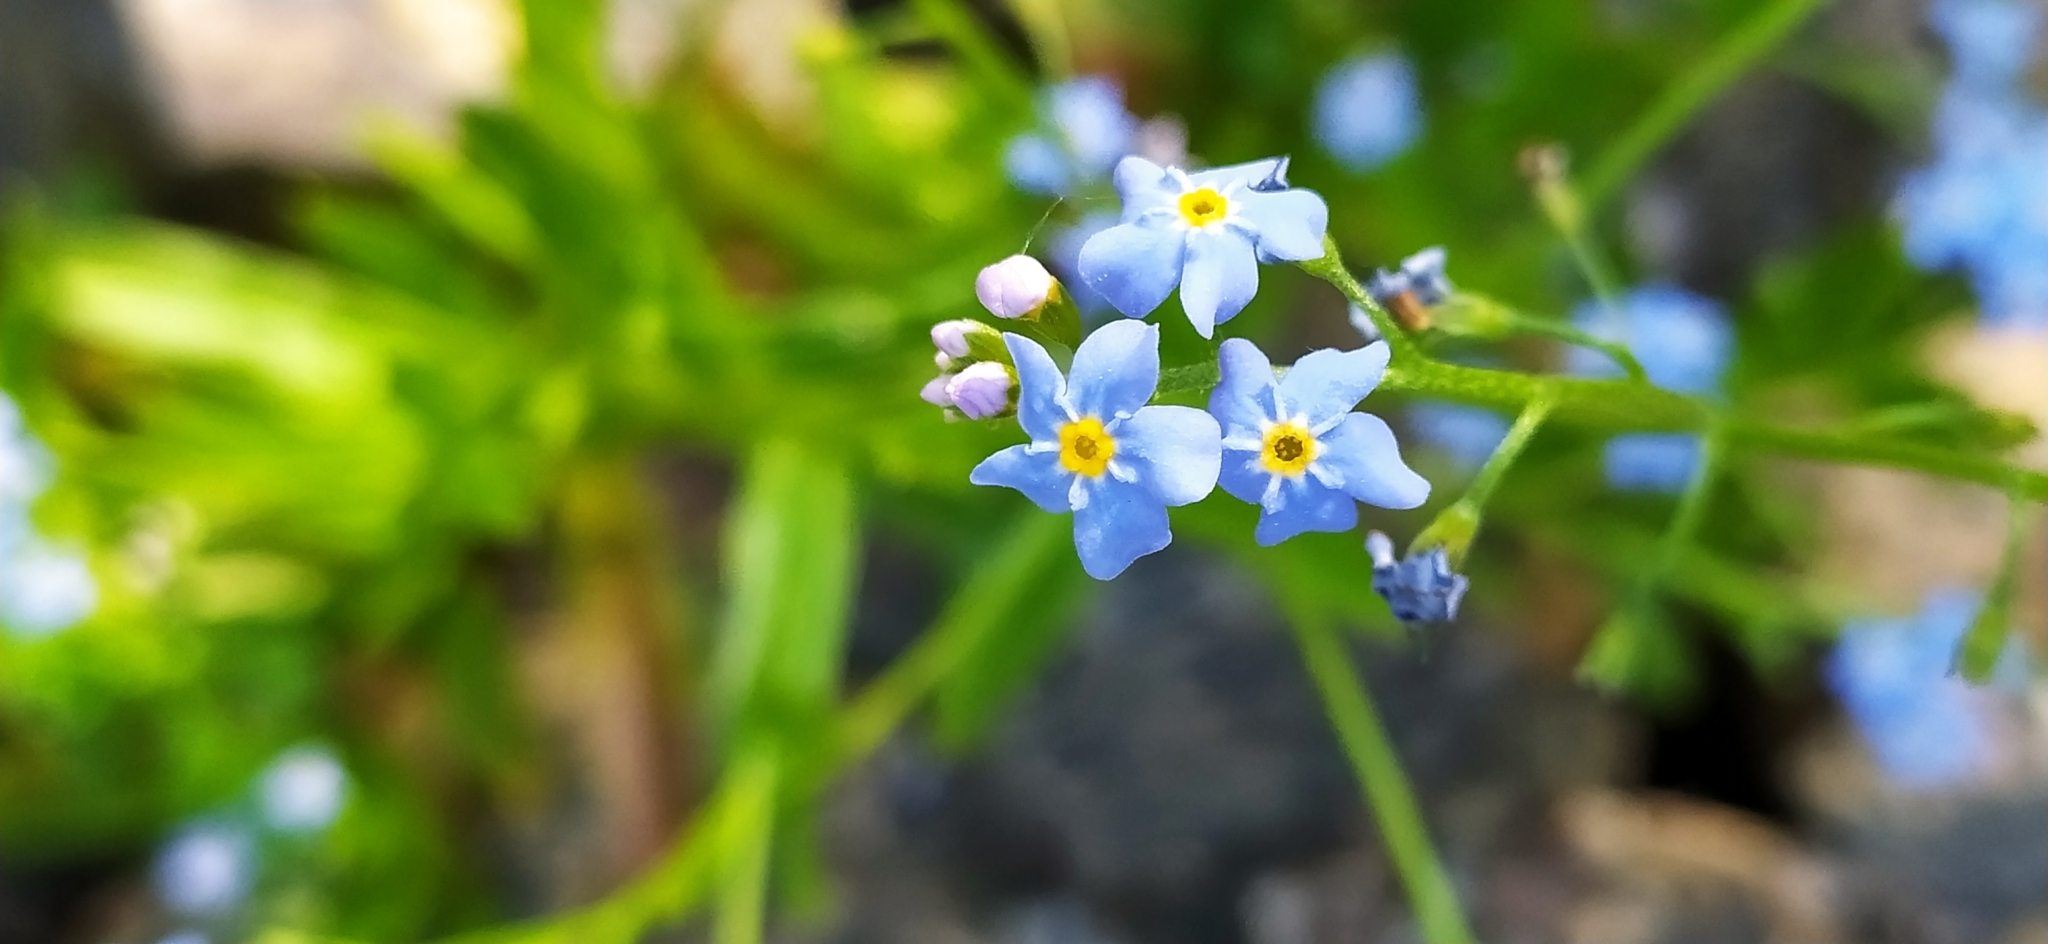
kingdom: Plantae
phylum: Tracheophyta
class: Magnoliopsida
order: Boraginales
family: Boraginaceae
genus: Myosotis
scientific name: Myosotis scorpioides
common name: Water forget-me-not
